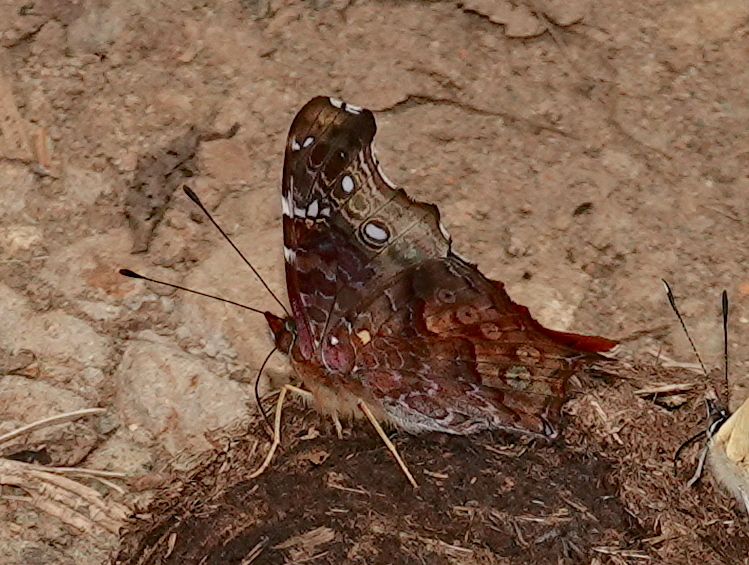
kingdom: Animalia
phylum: Arthropoda
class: Insecta
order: Lepidoptera
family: Nymphalidae
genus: Hypanartia
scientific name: Hypanartia kefersteini
